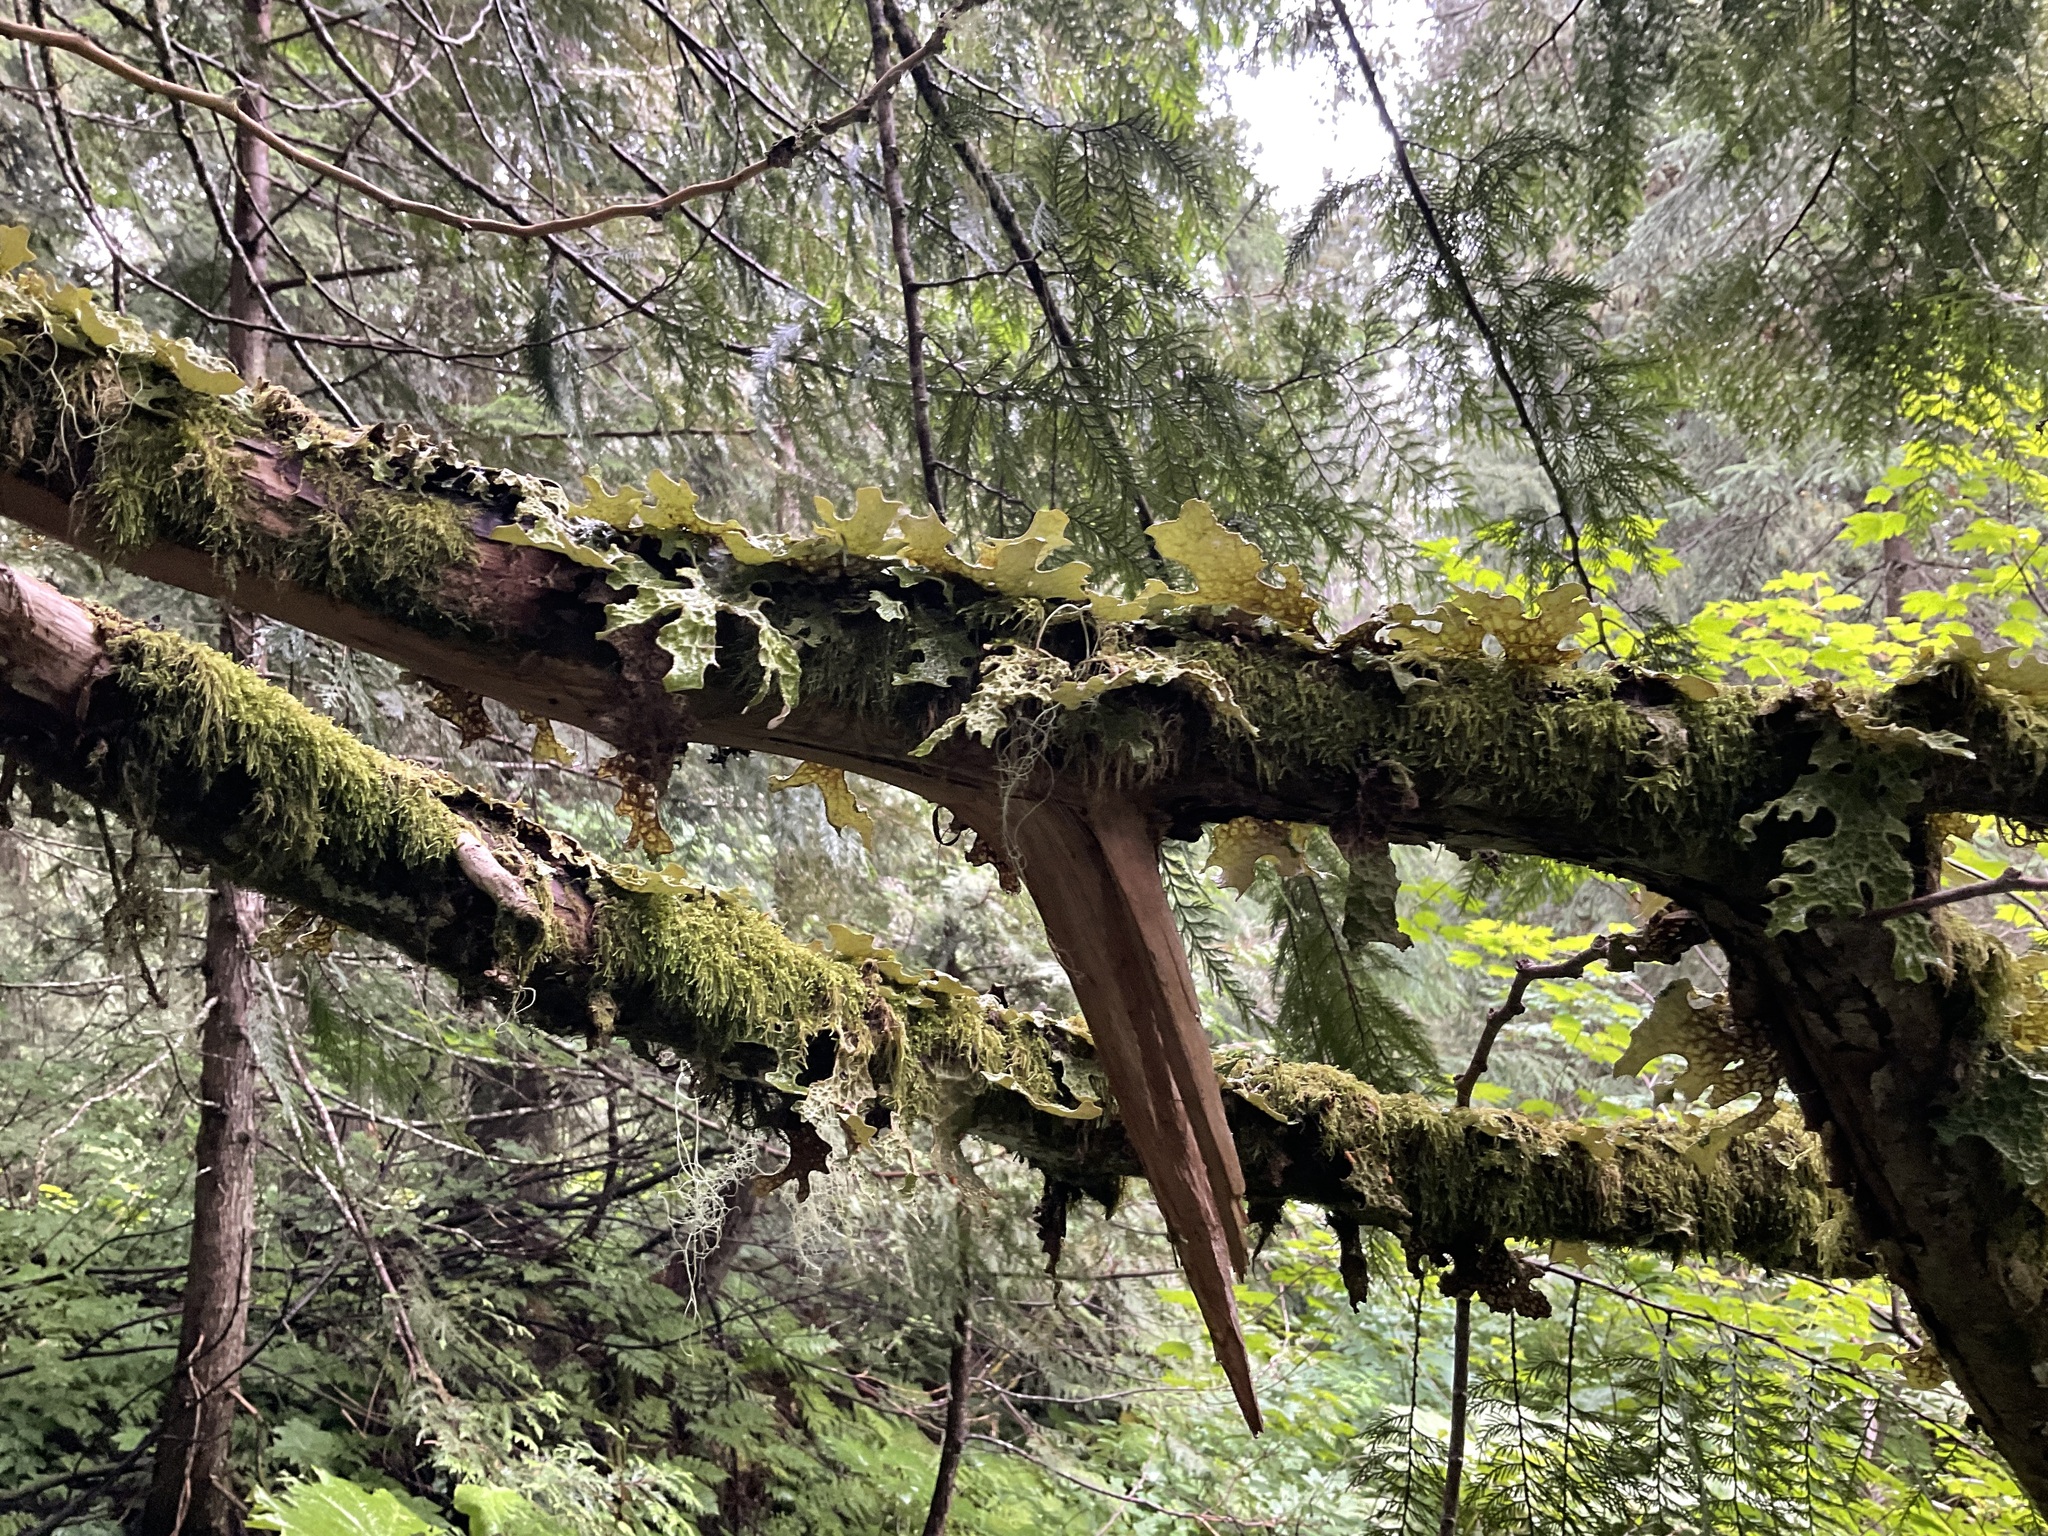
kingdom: Fungi
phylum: Ascomycota
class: Lecanoromycetes
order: Peltigerales
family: Lobariaceae
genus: Lobaria
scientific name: Lobaria pulmonaria
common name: Lungwort
